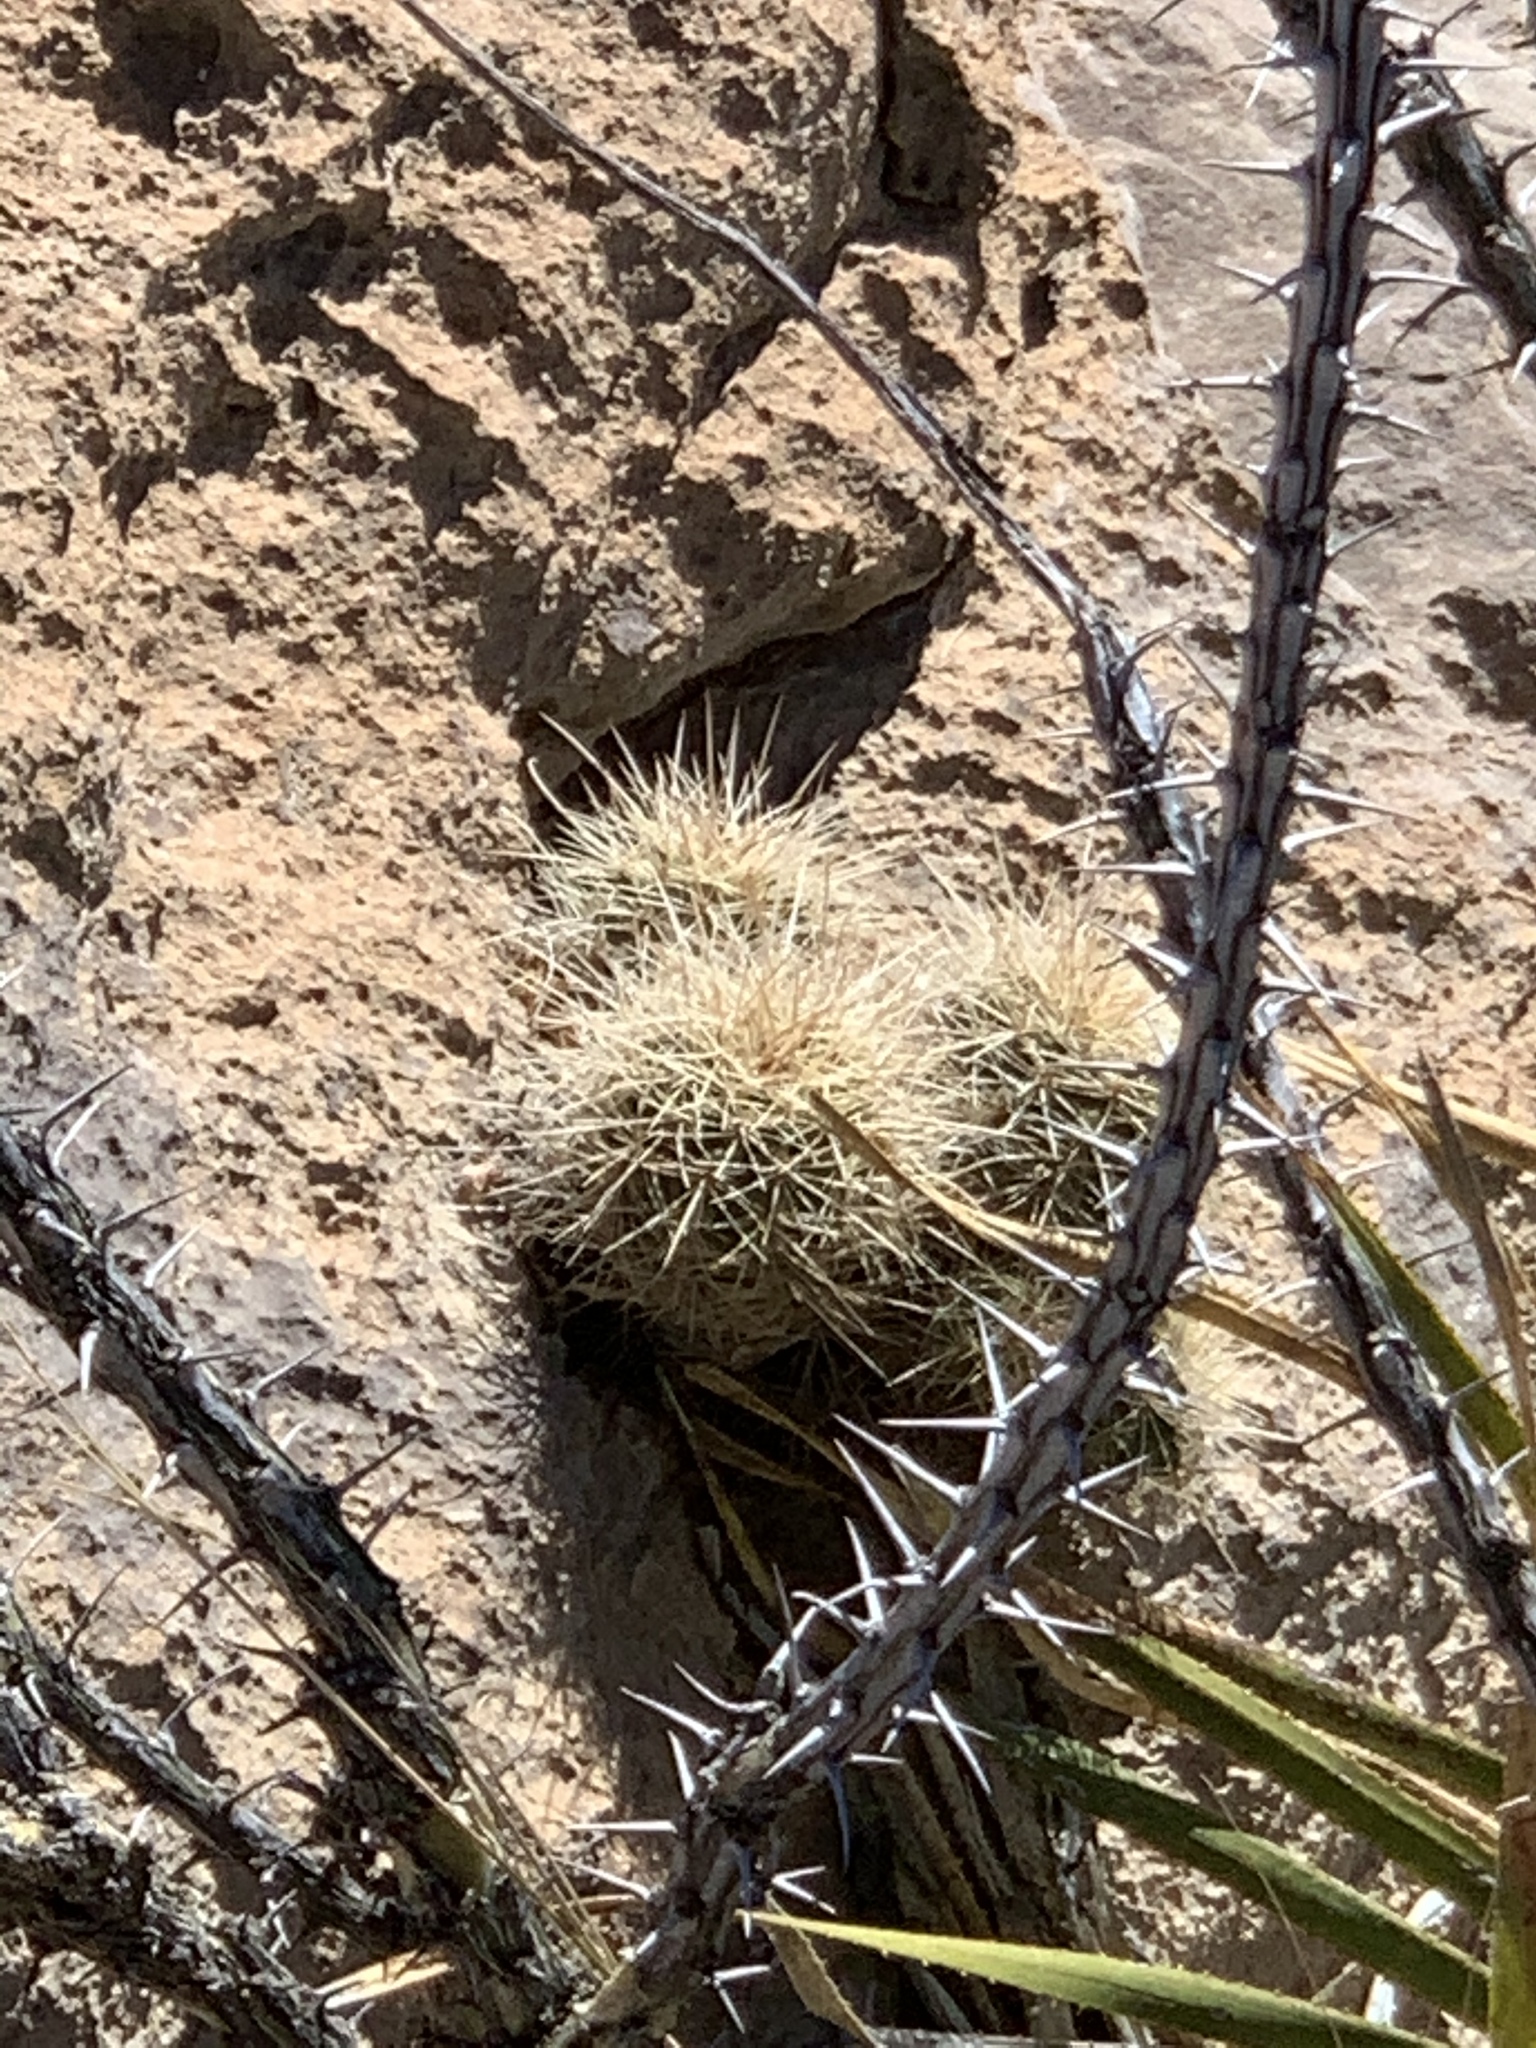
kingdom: Plantae
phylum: Tracheophyta
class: Magnoliopsida
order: Caryophyllales
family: Cactaceae
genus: Echinocereus
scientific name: Echinocereus coccineus
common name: Scarlet hedgehog cactus
